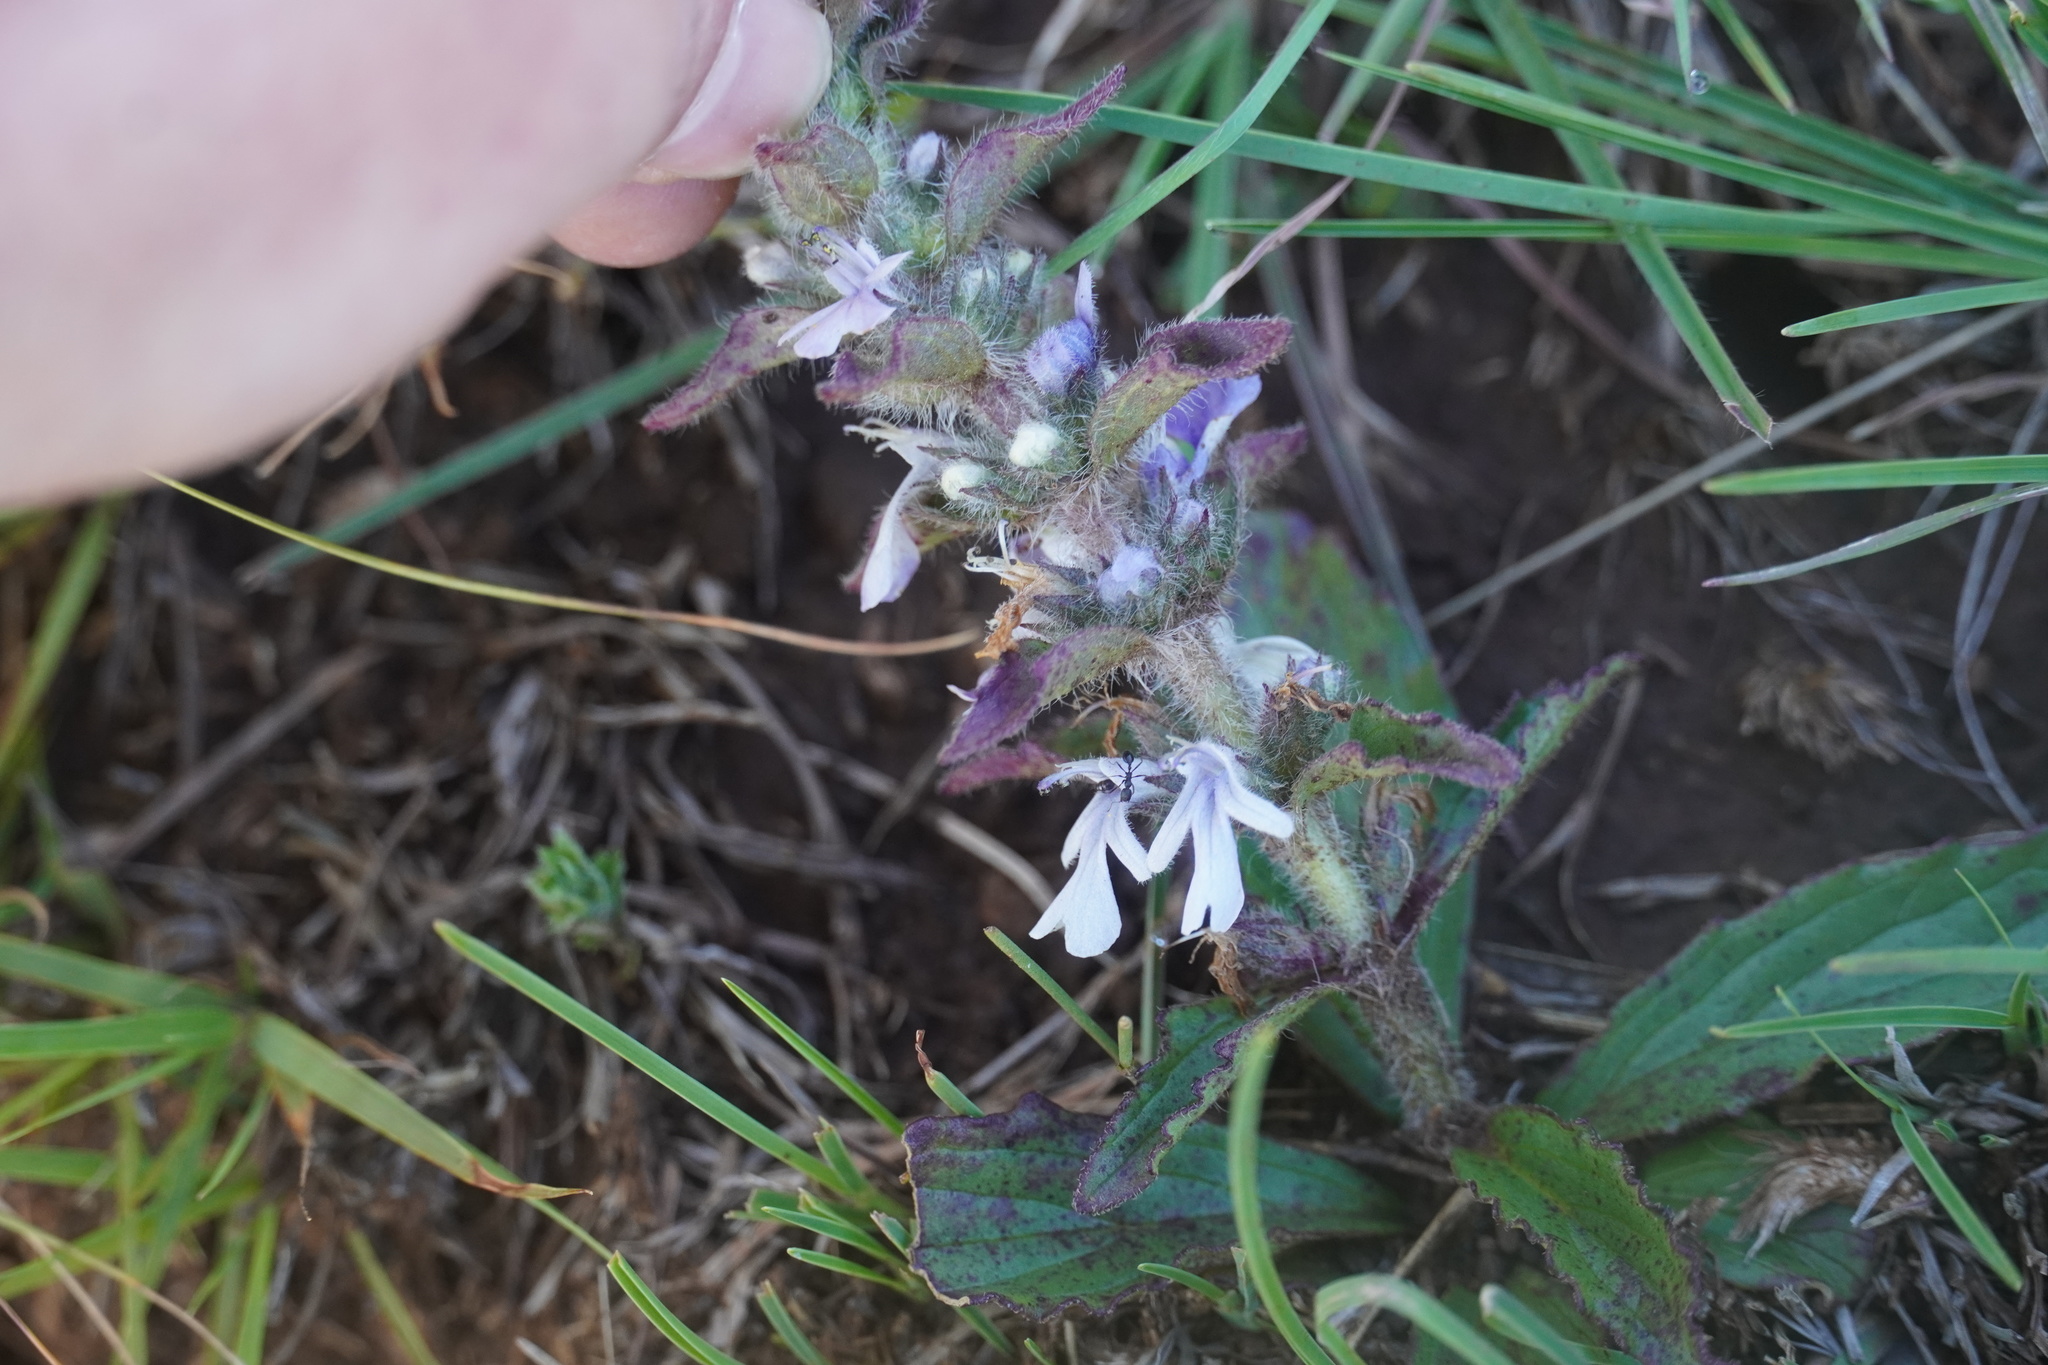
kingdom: Plantae
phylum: Tracheophyta
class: Magnoliopsida
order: Lamiales
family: Lamiaceae
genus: Ajuga
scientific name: Ajuga ophrydis
